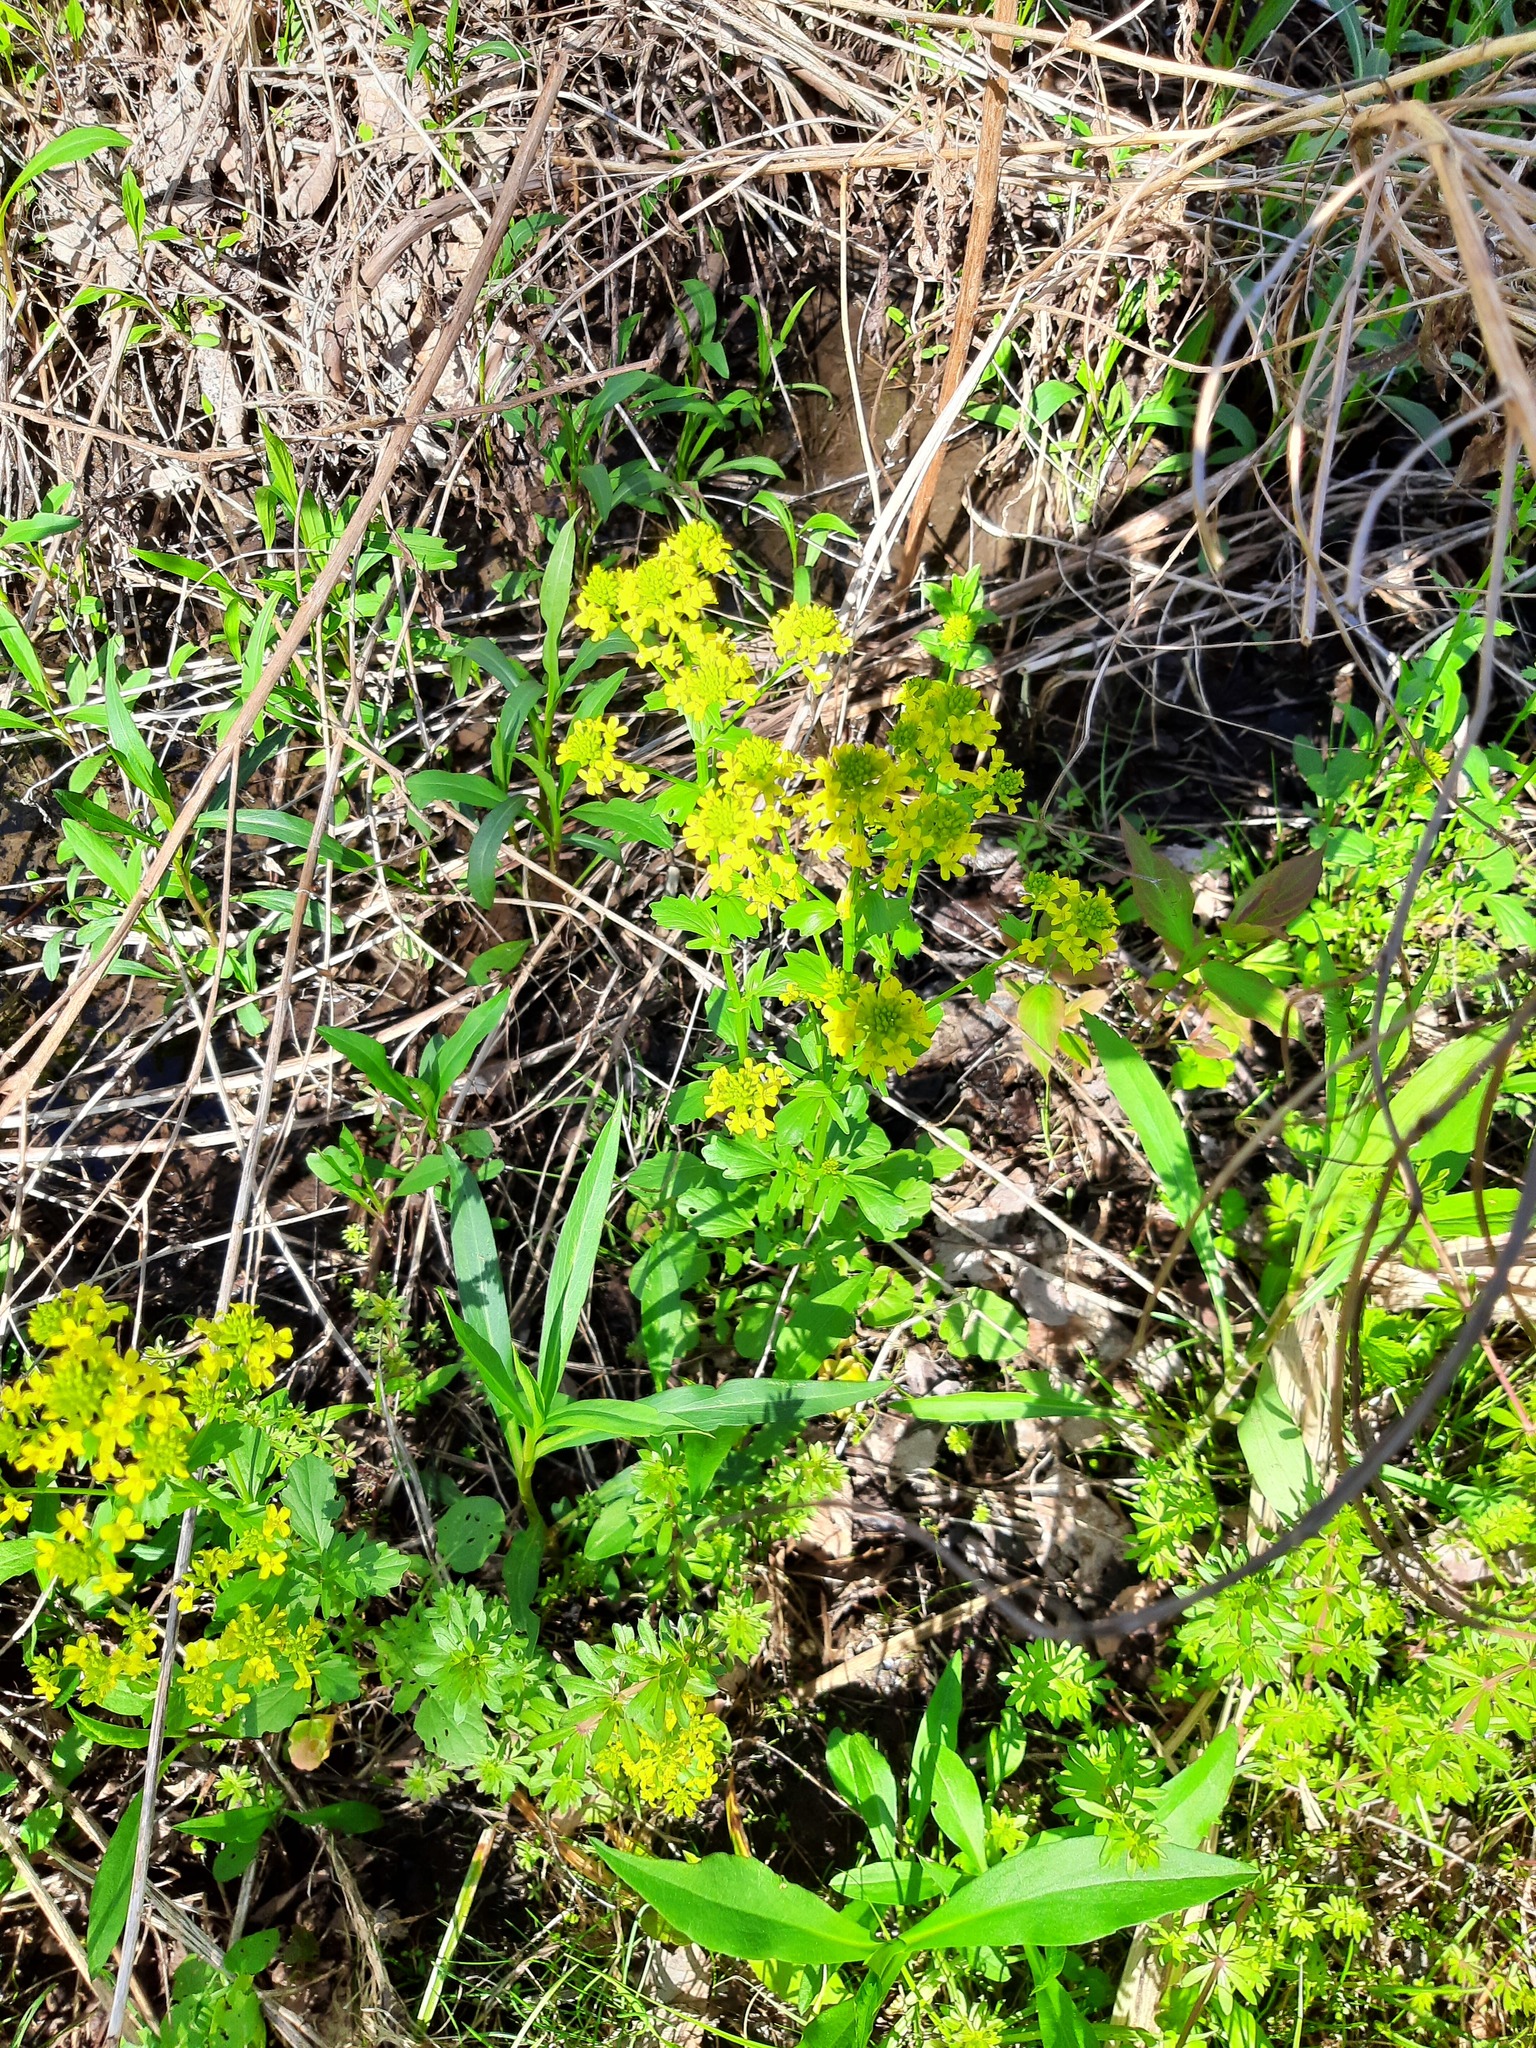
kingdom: Plantae
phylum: Tracheophyta
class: Magnoliopsida
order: Brassicales
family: Brassicaceae
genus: Barbarea
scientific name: Barbarea vulgaris
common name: Cressy-greens
